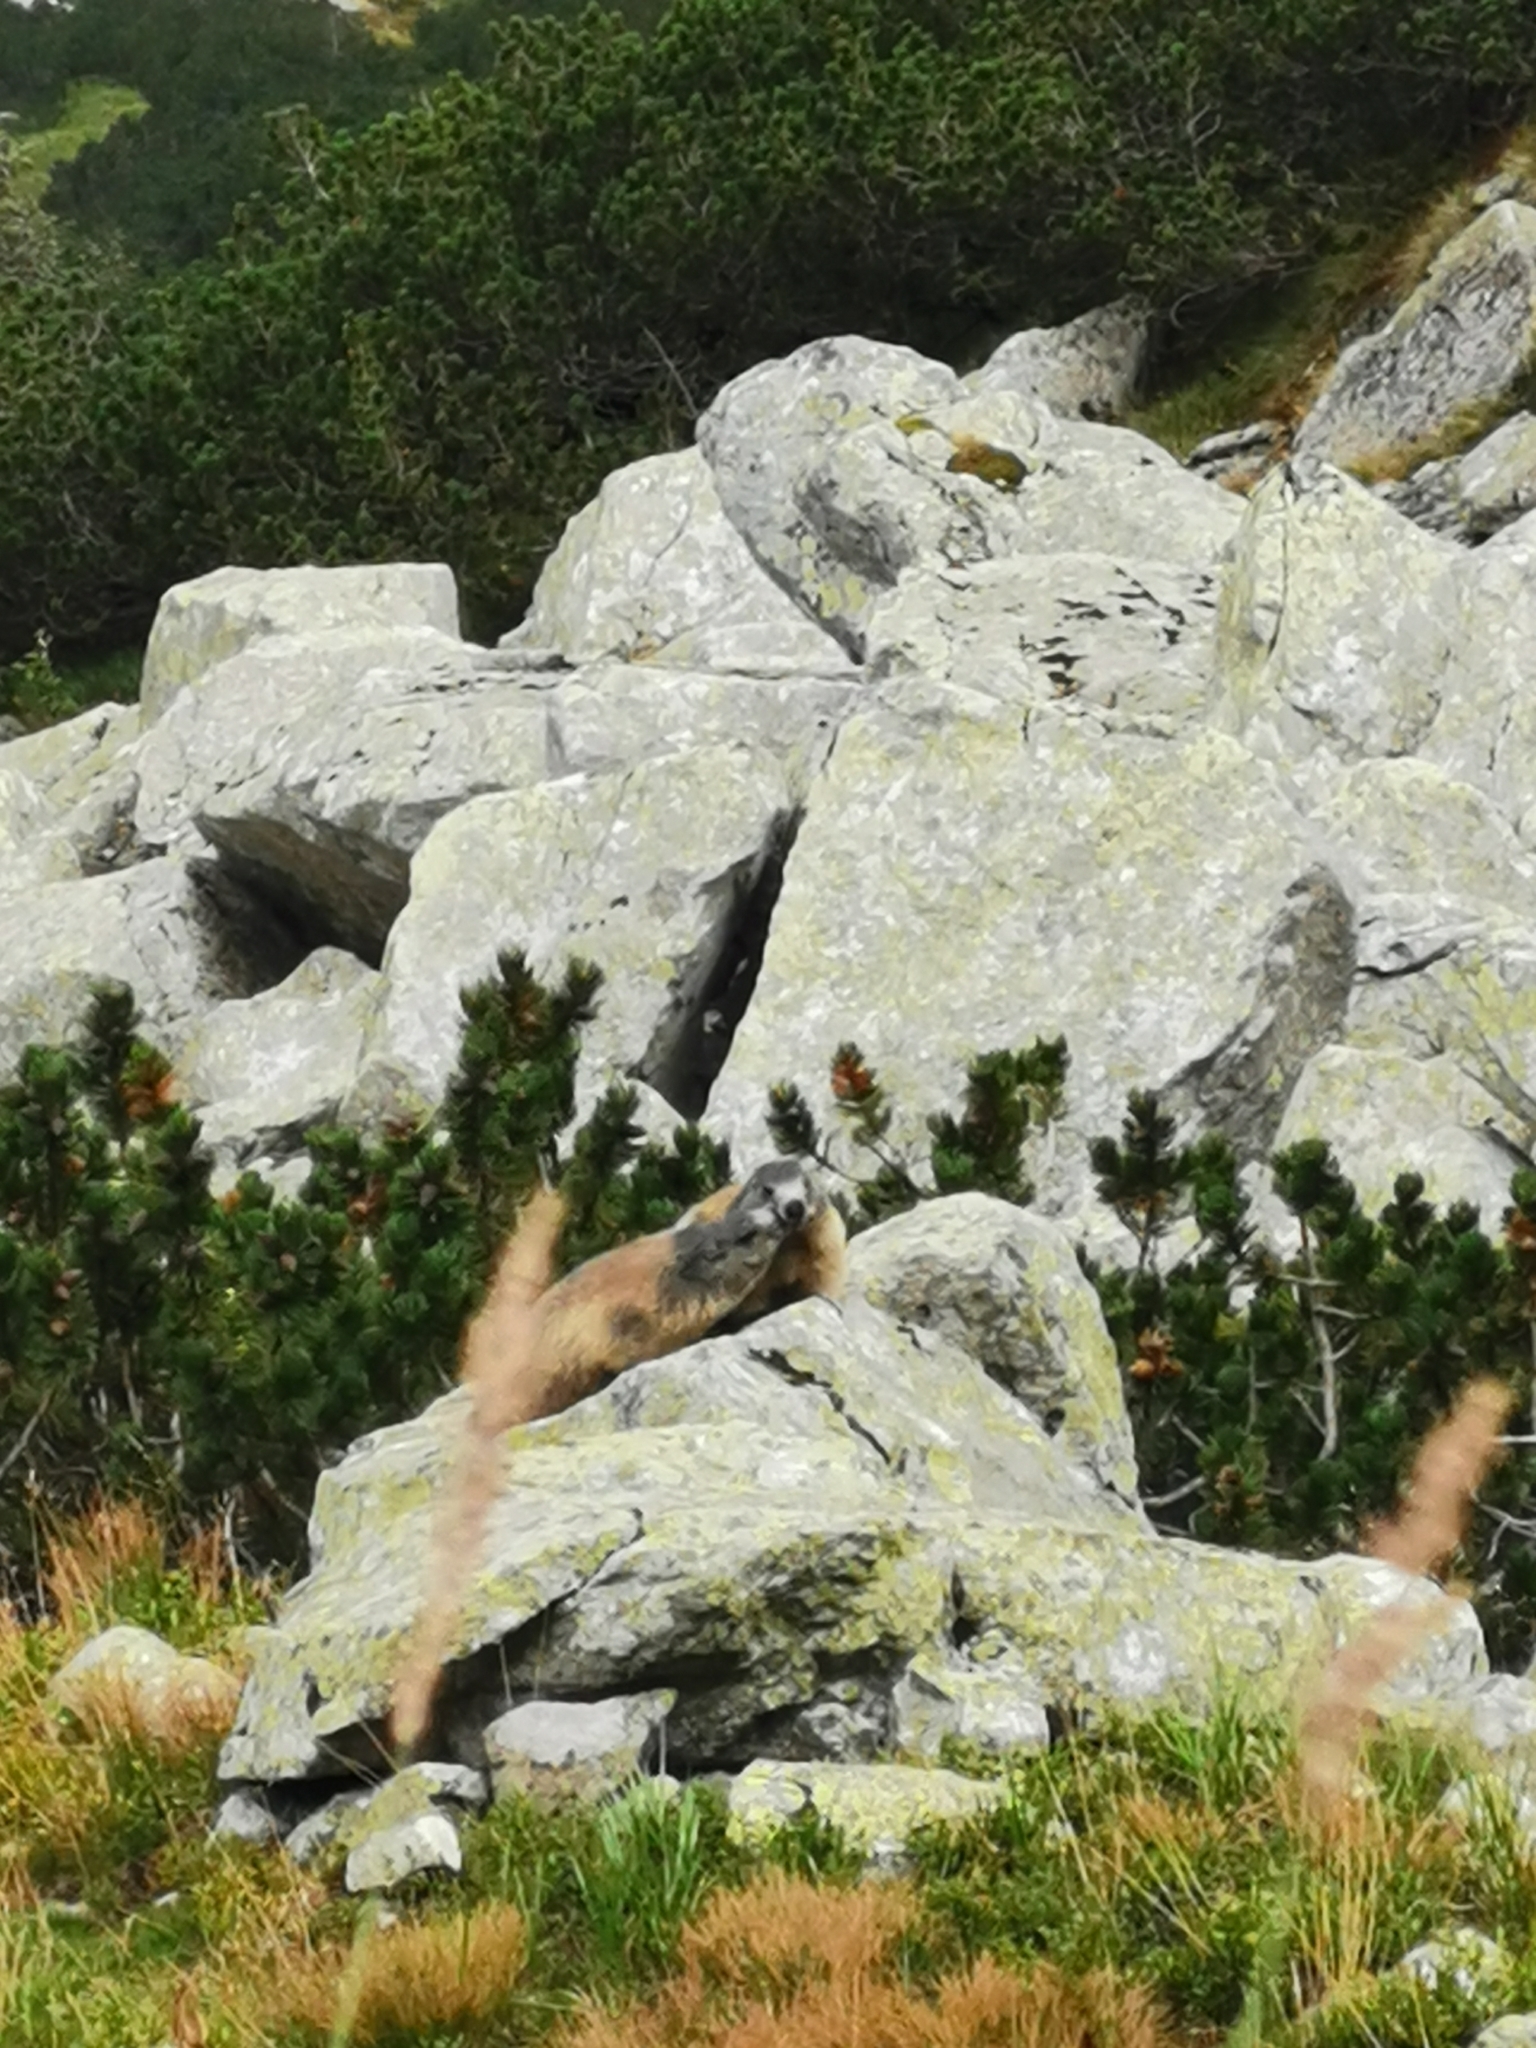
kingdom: Animalia
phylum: Chordata
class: Mammalia
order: Rodentia
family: Sciuridae
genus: Marmota
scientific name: Marmota marmota
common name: Alpine marmot
